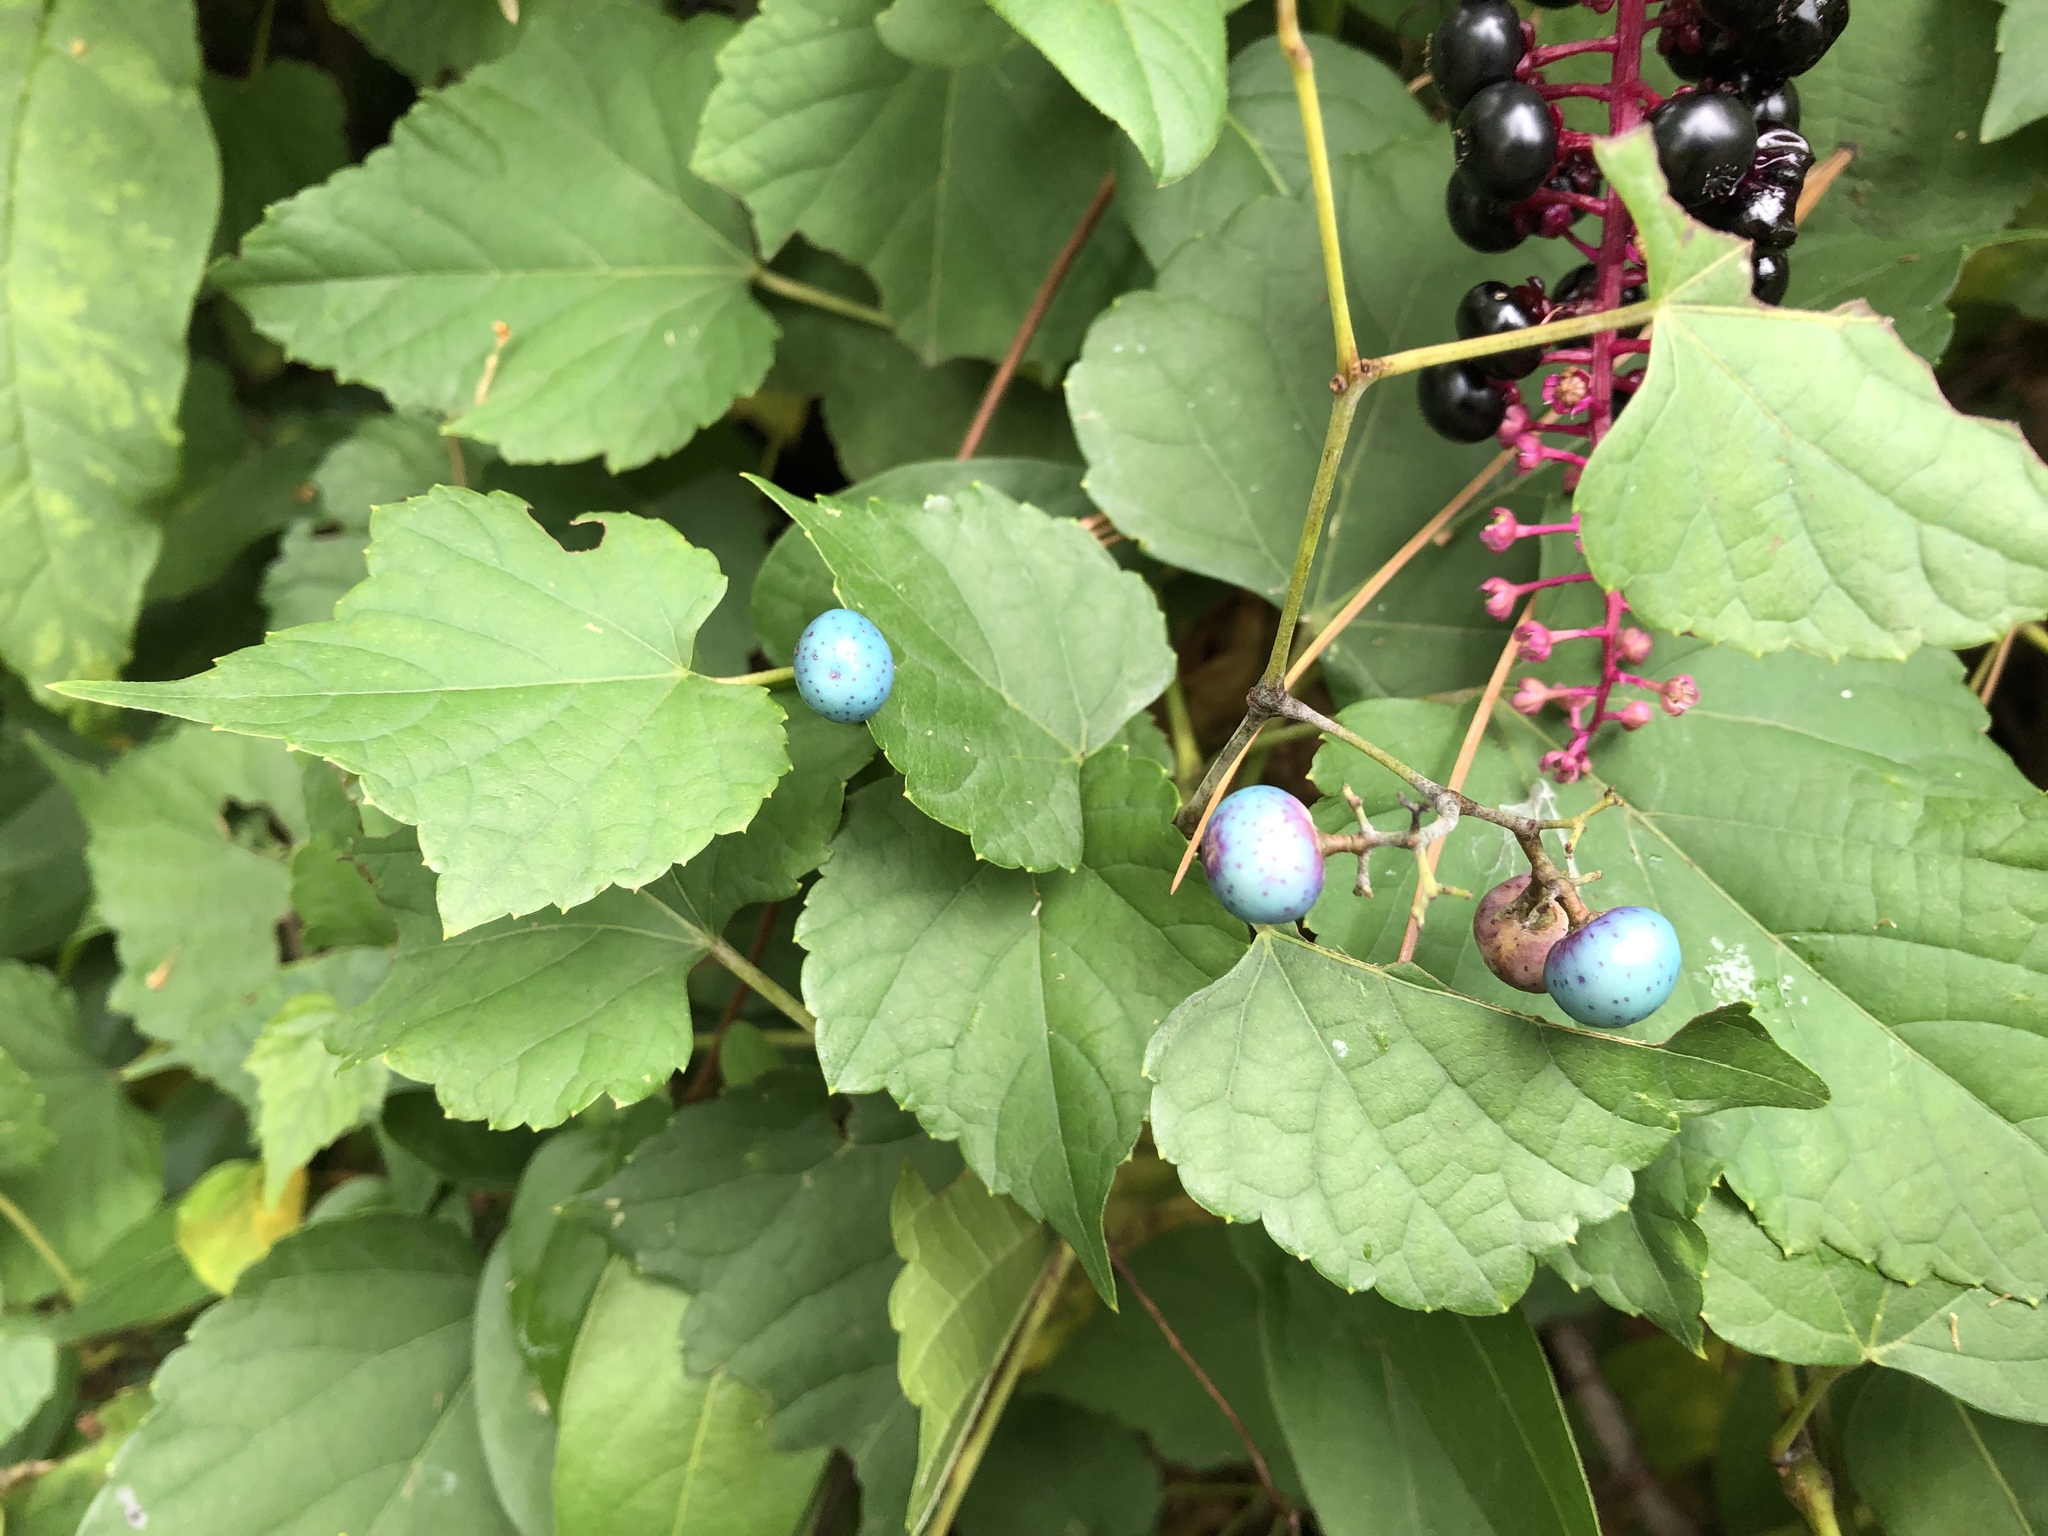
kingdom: Plantae
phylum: Tracheophyta
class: Magnoliopsida
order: Vitales
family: Vitaceae
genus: Ampelopsis
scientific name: Ampelopsis glandulosa
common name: Amur peppervine
